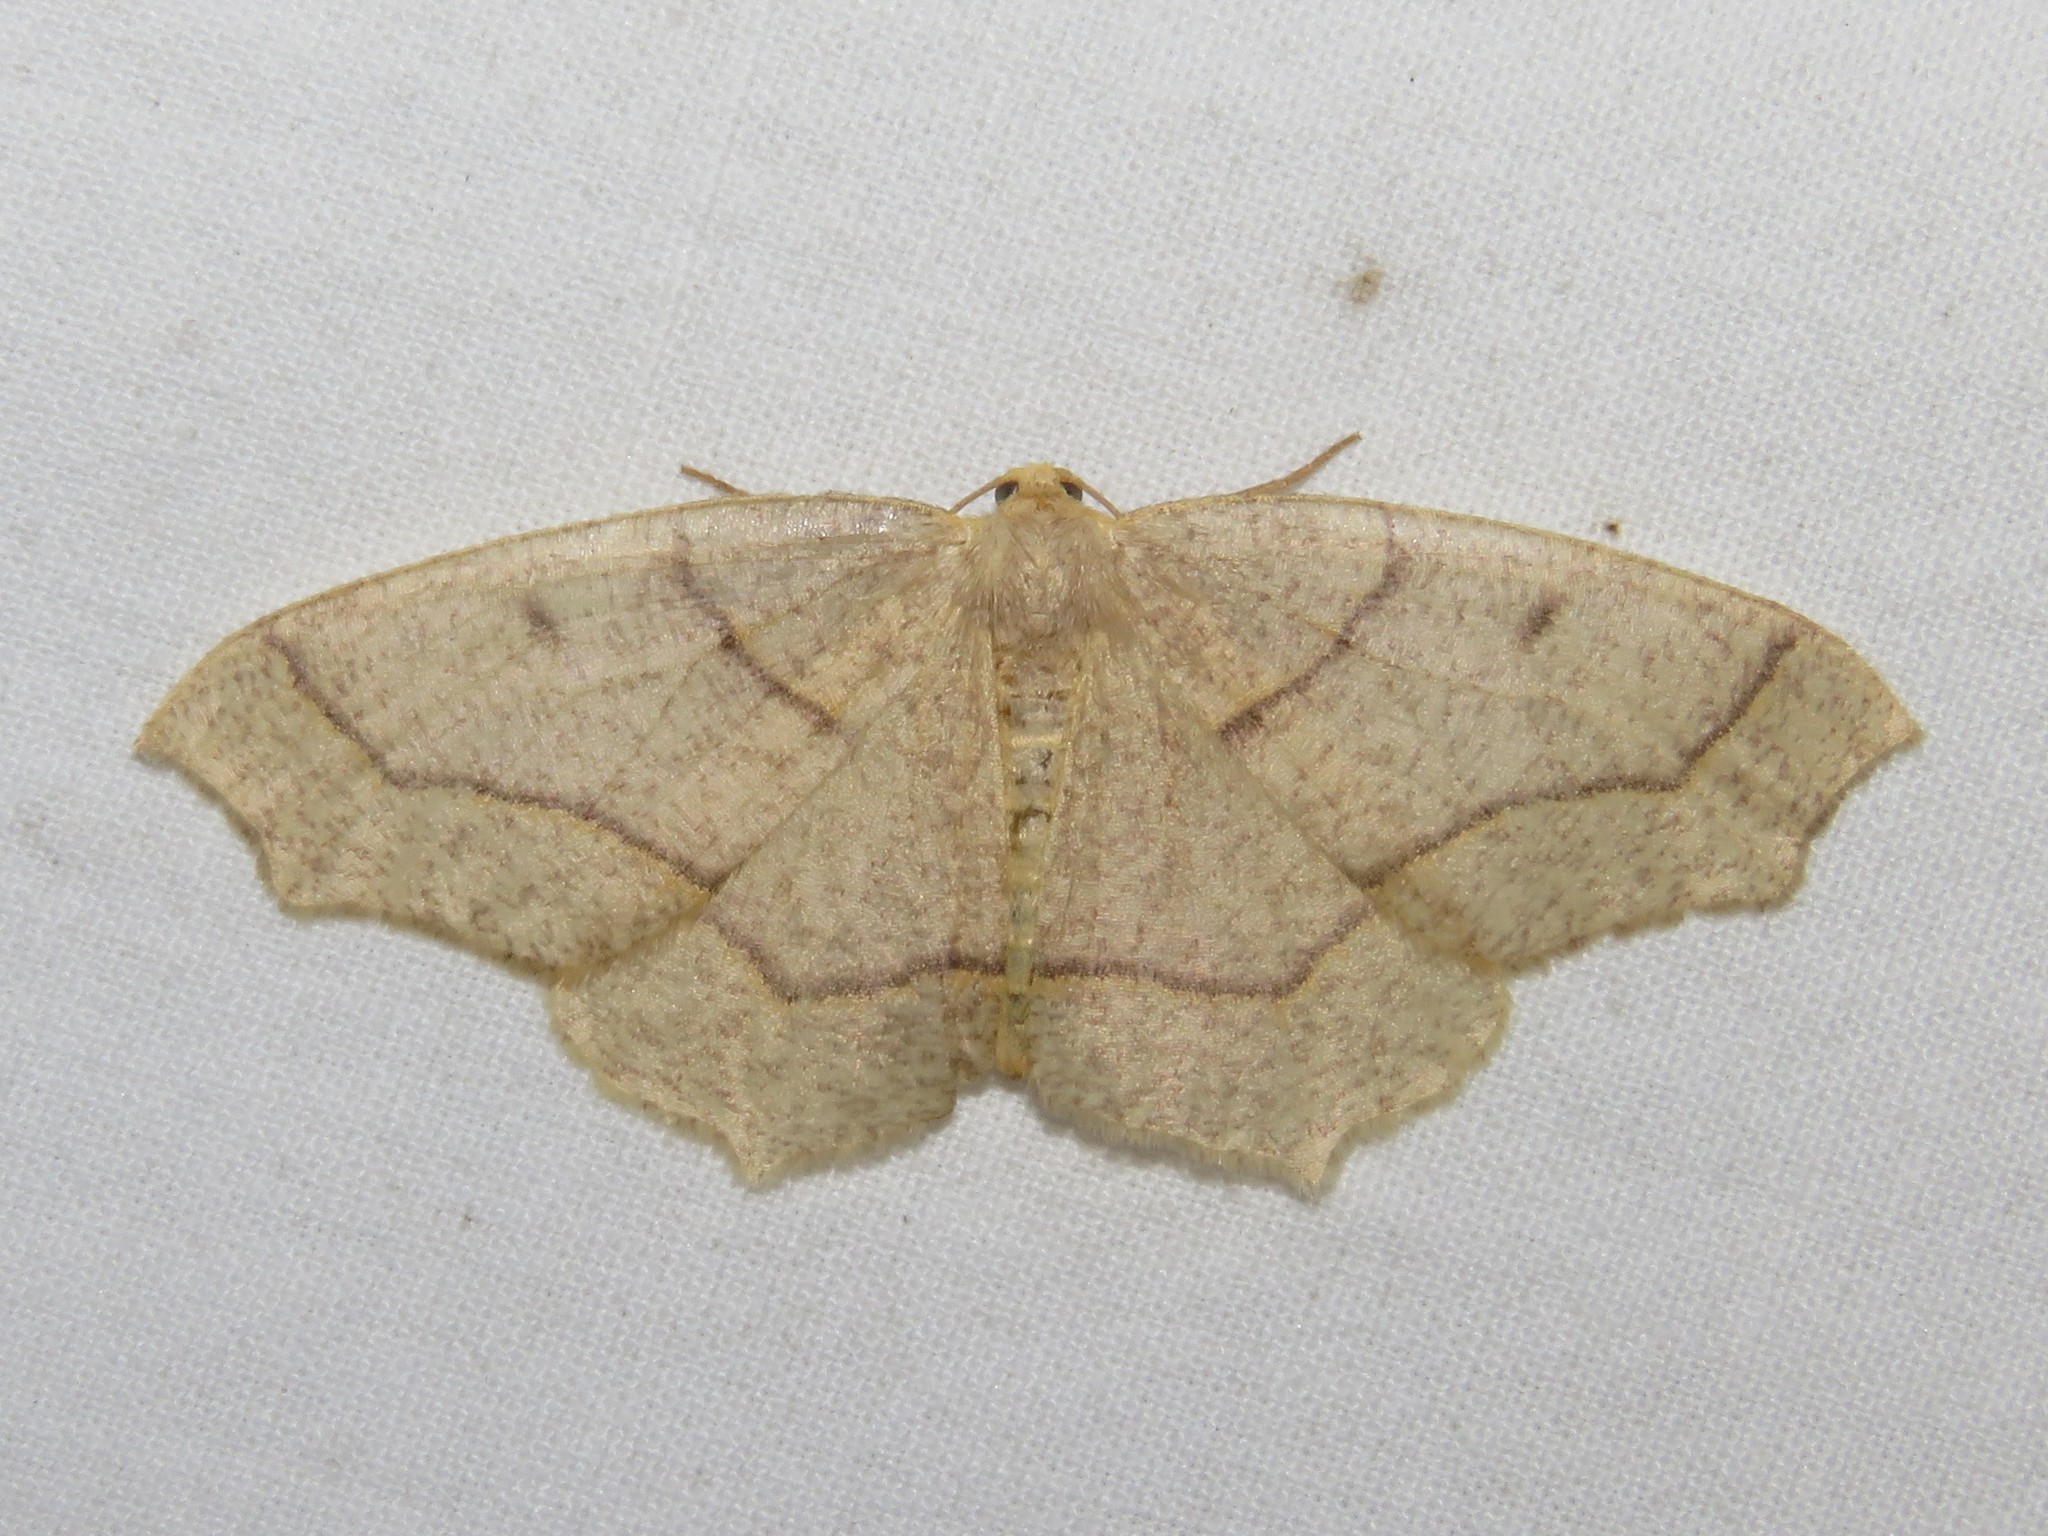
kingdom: Animalia
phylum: Arthropoda
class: Insecta
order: Lepidoptera
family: Geometridae
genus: Lambdina
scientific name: Lambdina fiscellaria
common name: Hemlock looper
